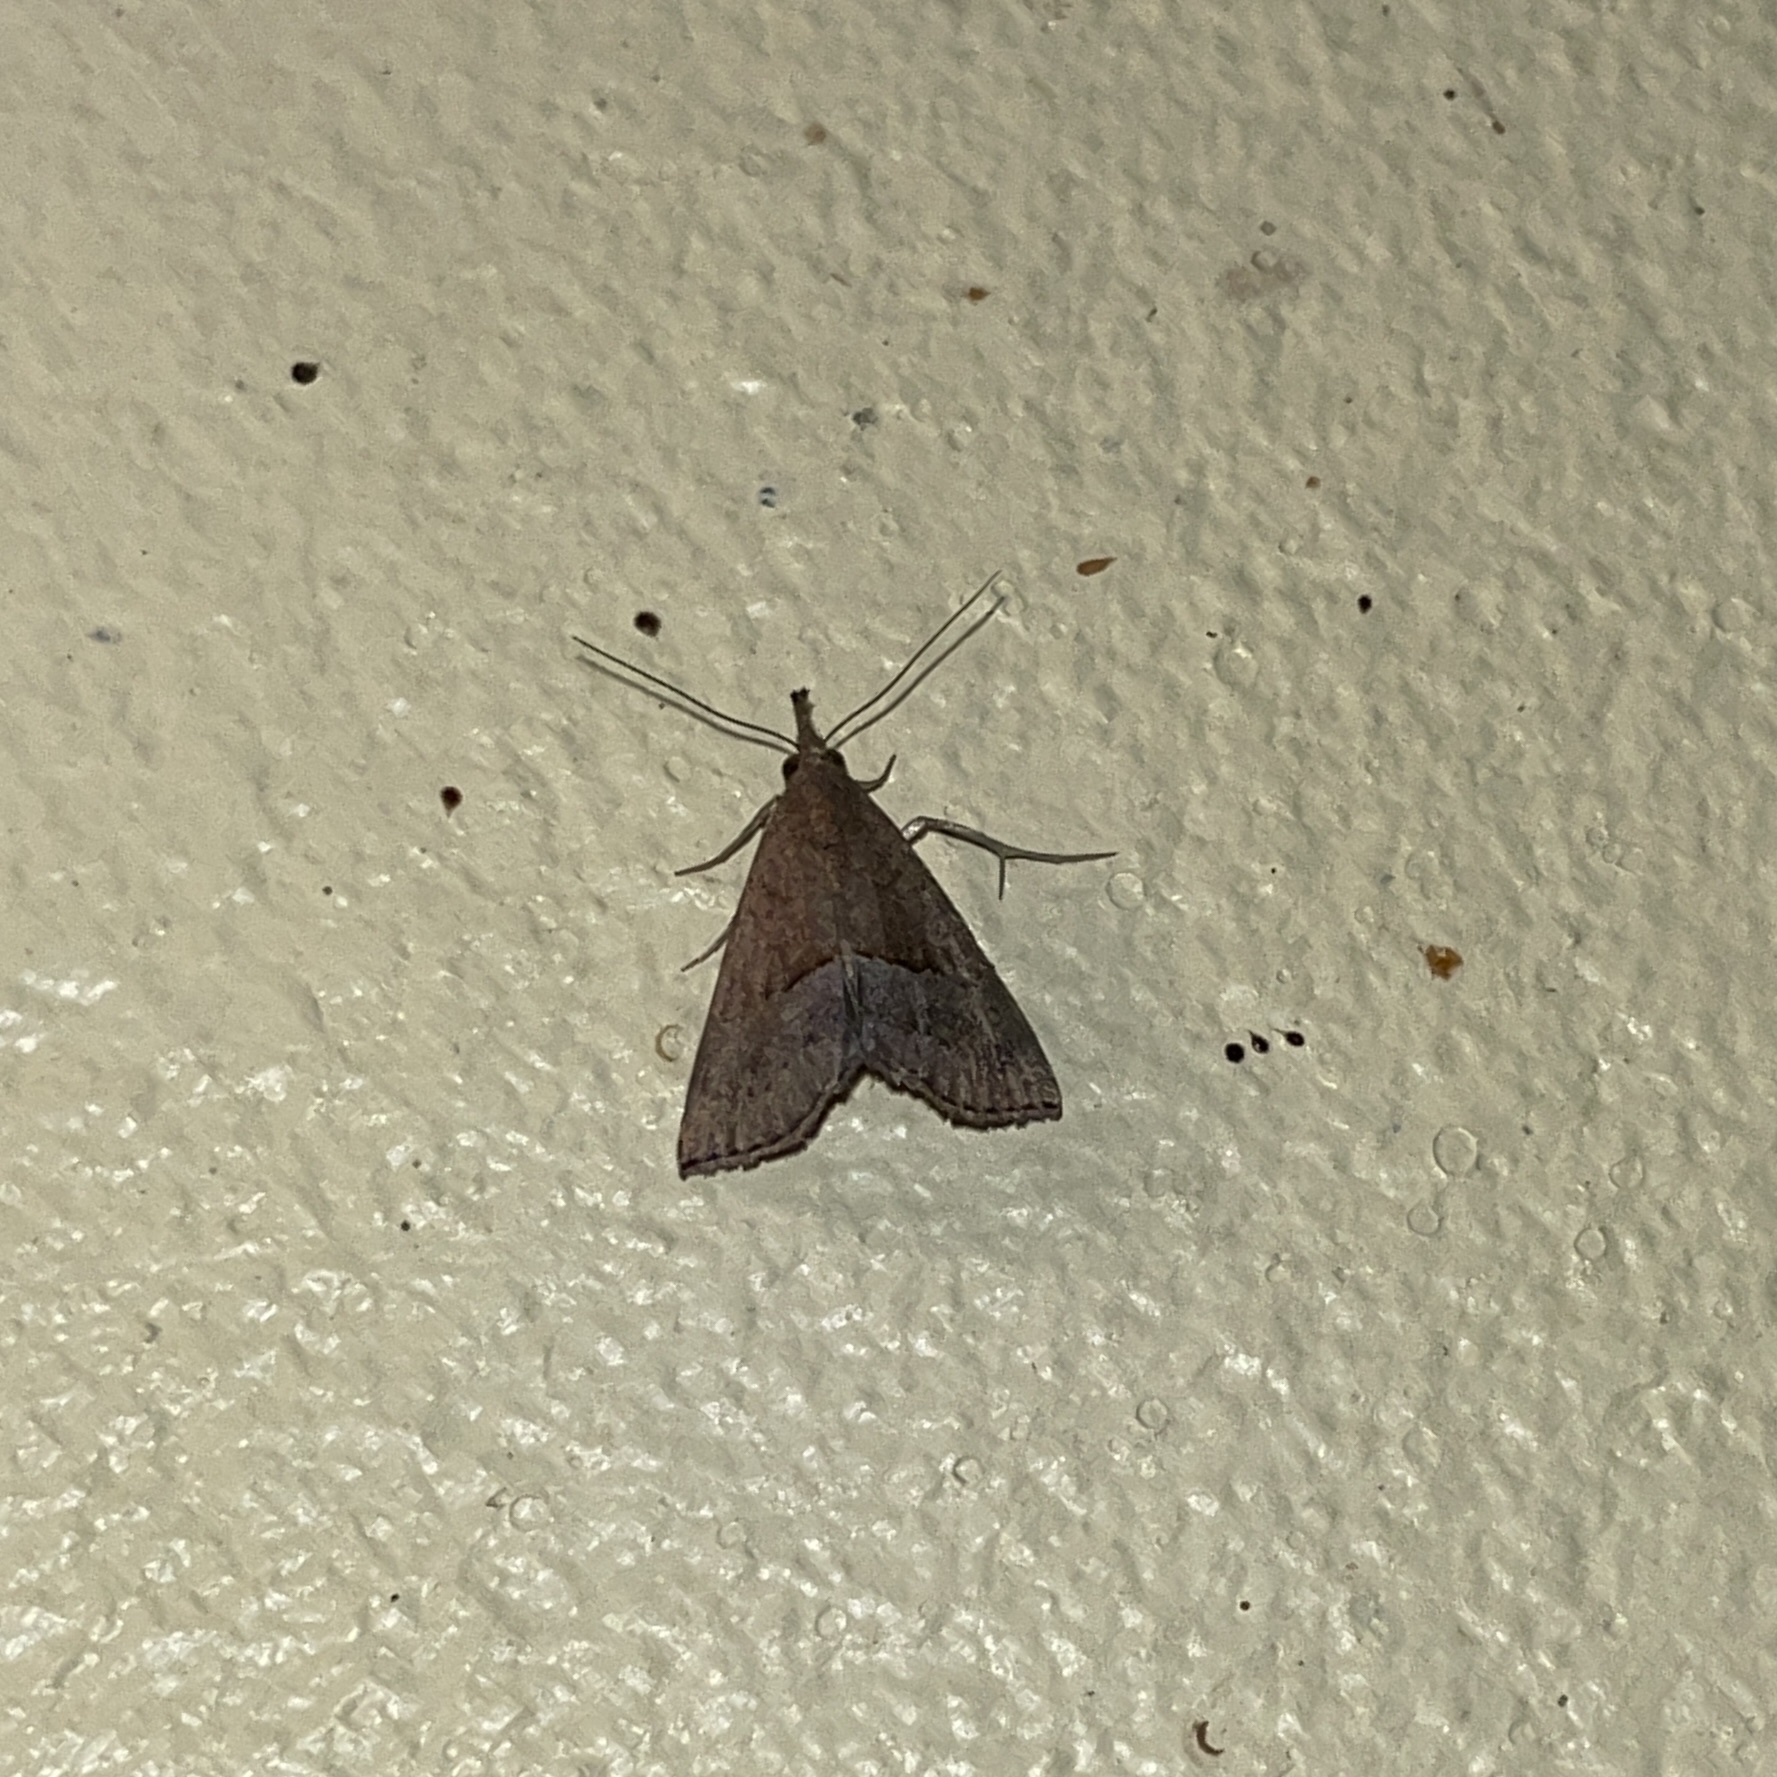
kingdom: Animalia
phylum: Arthropoda
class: Insecta
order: Lepidoptera
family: Erebidae
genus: Hypena
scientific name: Hypena porrectalis
